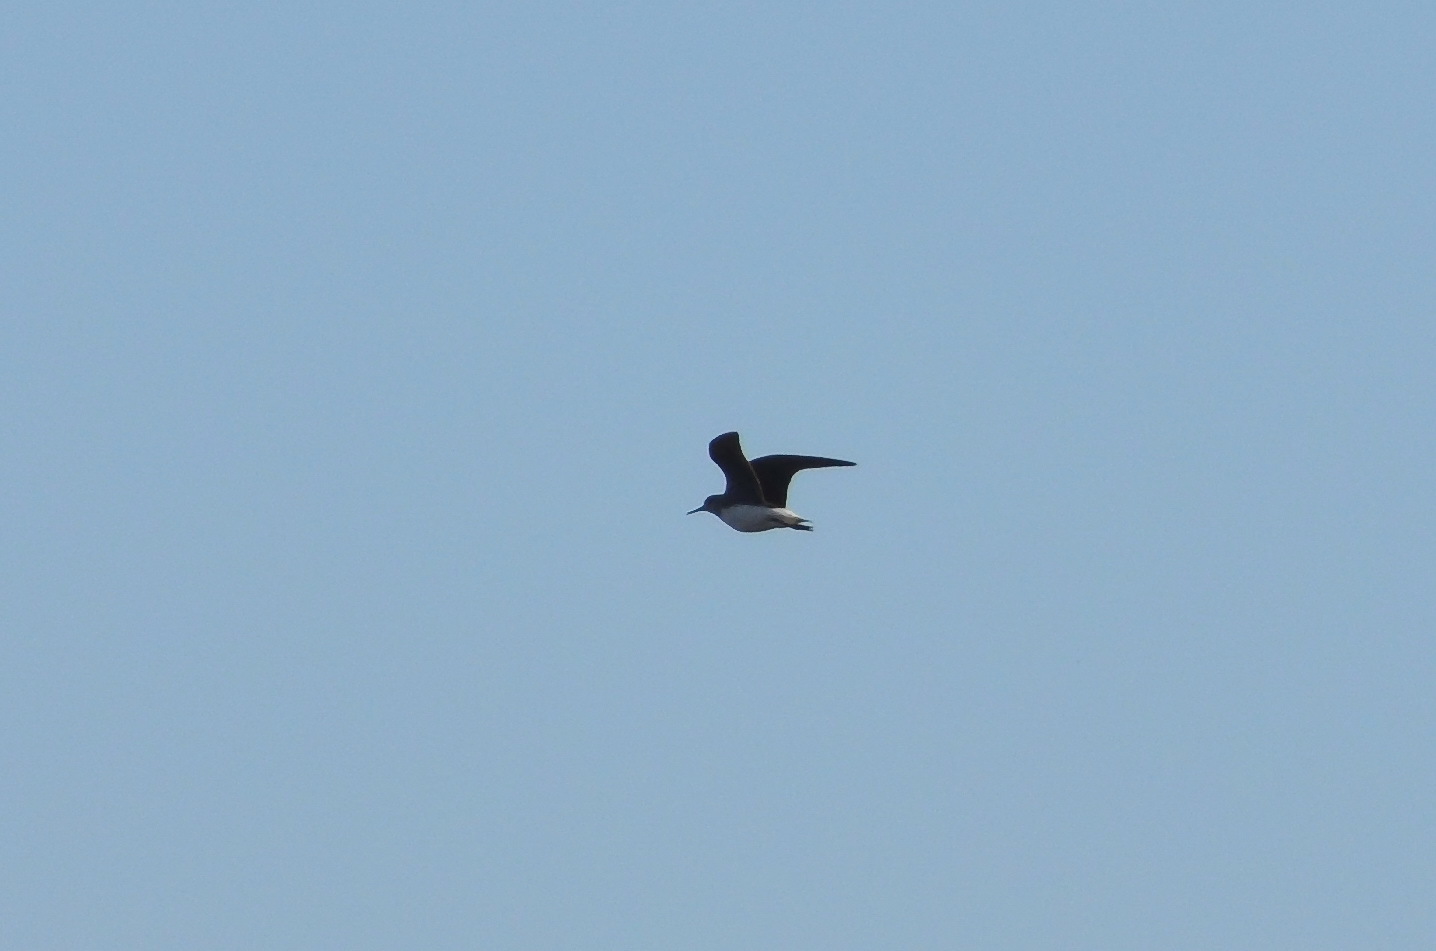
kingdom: Animalia
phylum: Chordata
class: Aves
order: Charadriiformes
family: Scolopacidae
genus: Tringa
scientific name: Tringa ochropus
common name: Green sandpiper
